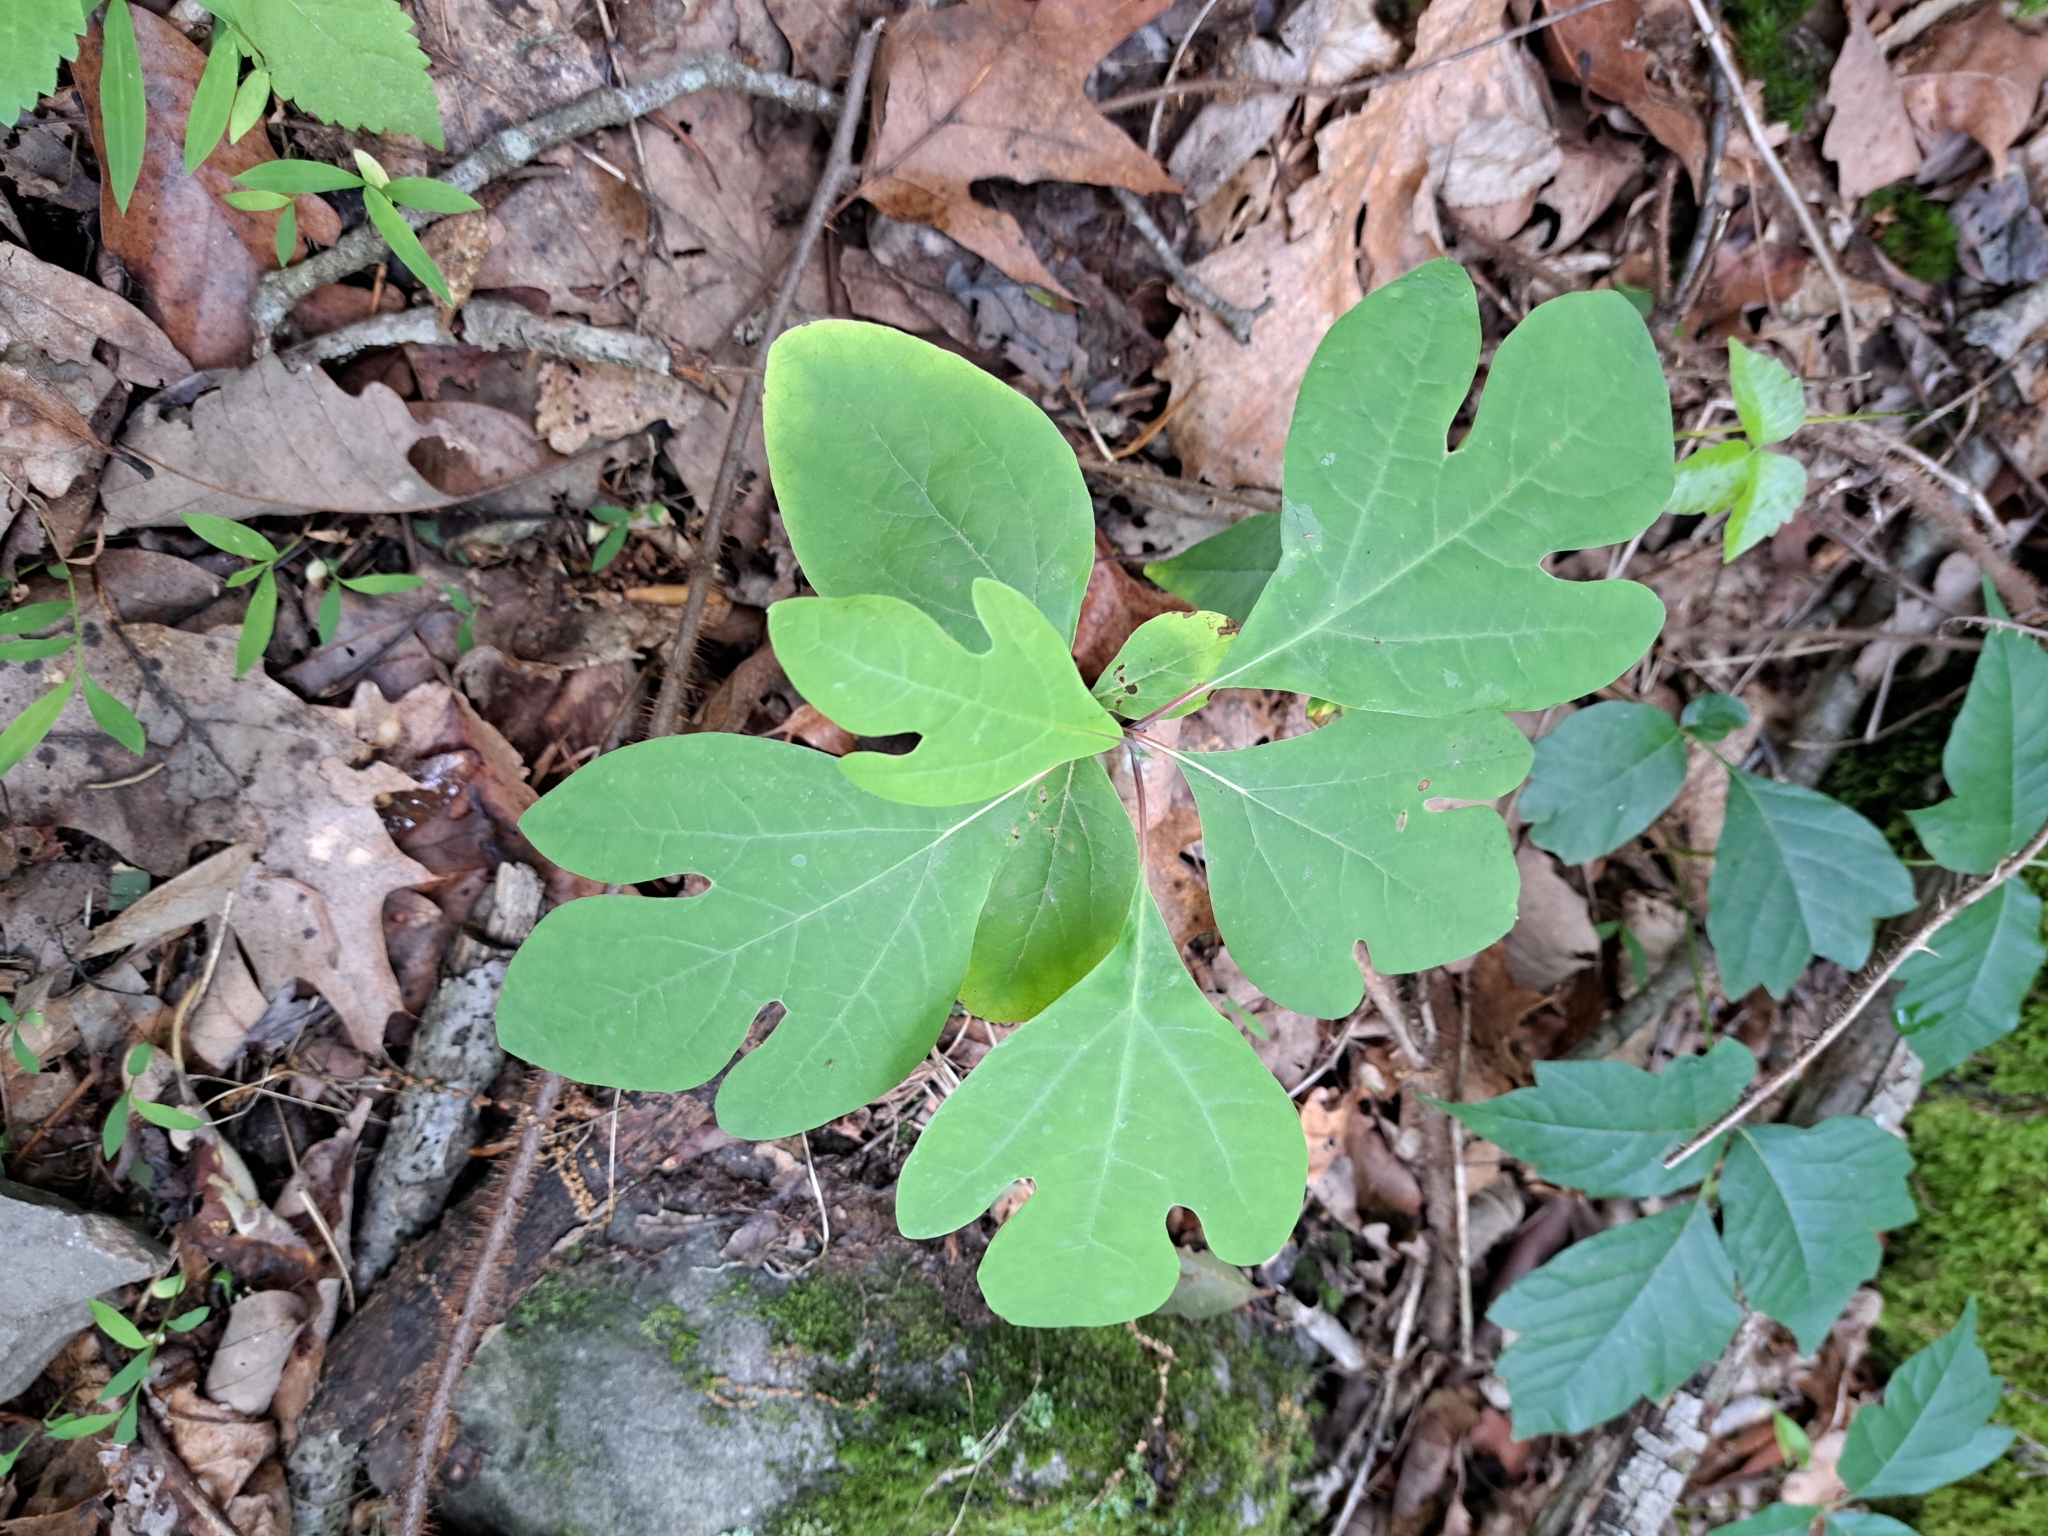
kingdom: Plantae
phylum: Tracheophyta
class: Magnoliopsida
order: Laurales
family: Lauraceae
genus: Sassafras
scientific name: Sassafras albidum
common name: Sassafras
